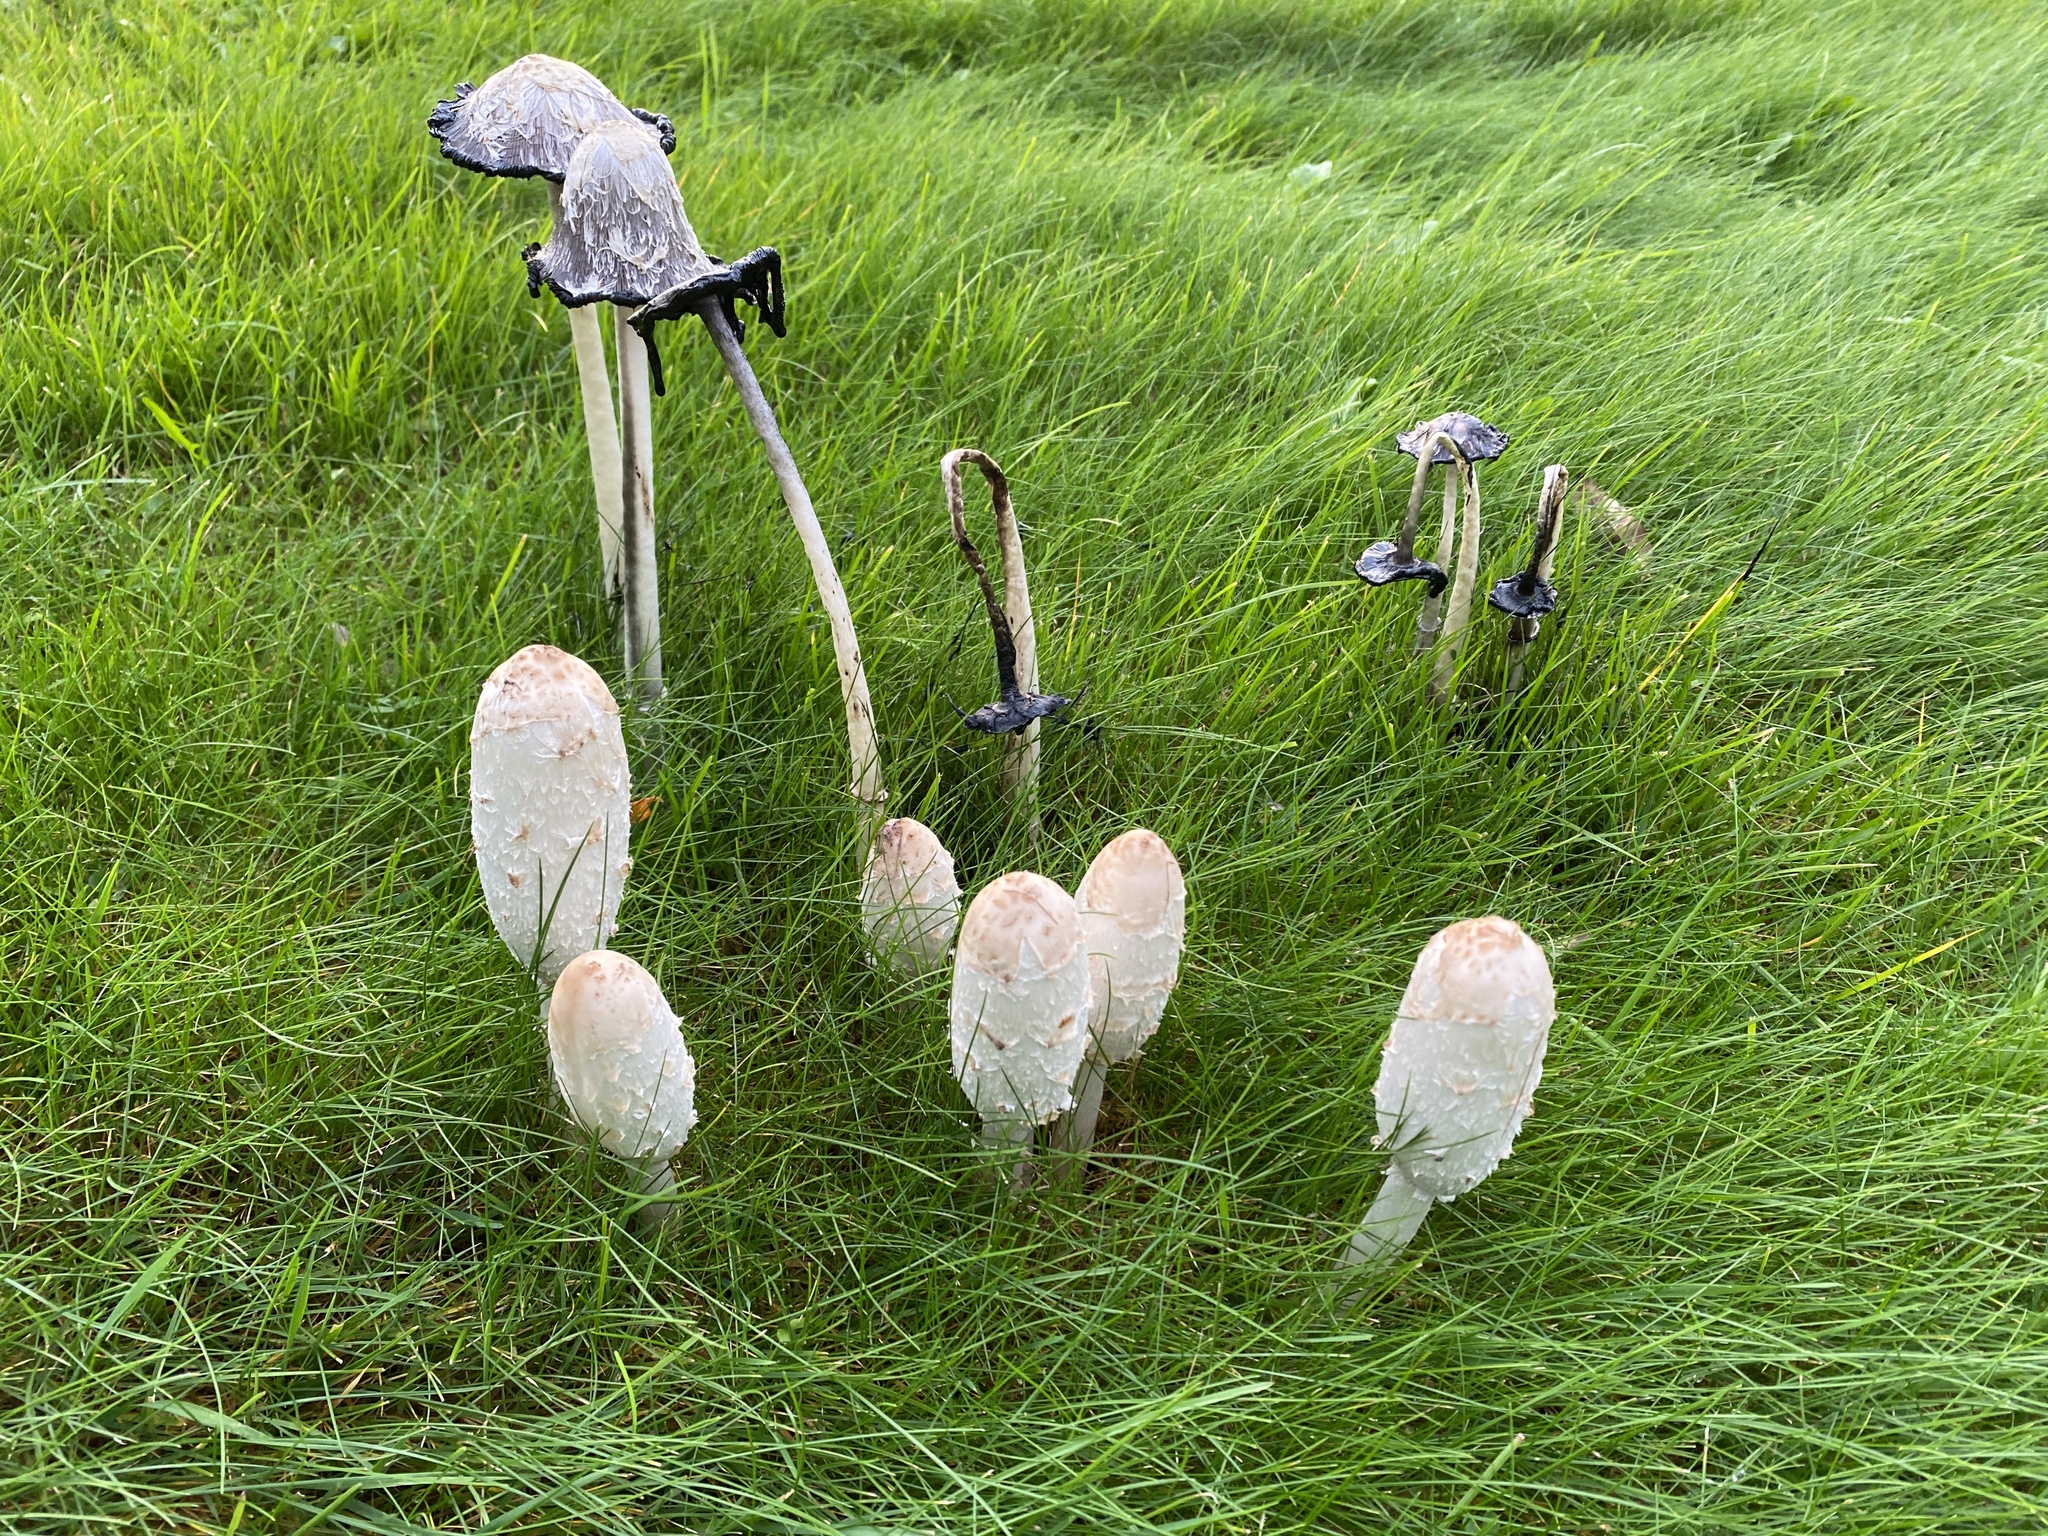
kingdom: Fungi
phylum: Basidiomycota
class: Agaricomycetes
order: Agaricales
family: Agaricaceae
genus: Coprinus
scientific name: Coprinus comatus
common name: Lawyer's wig
